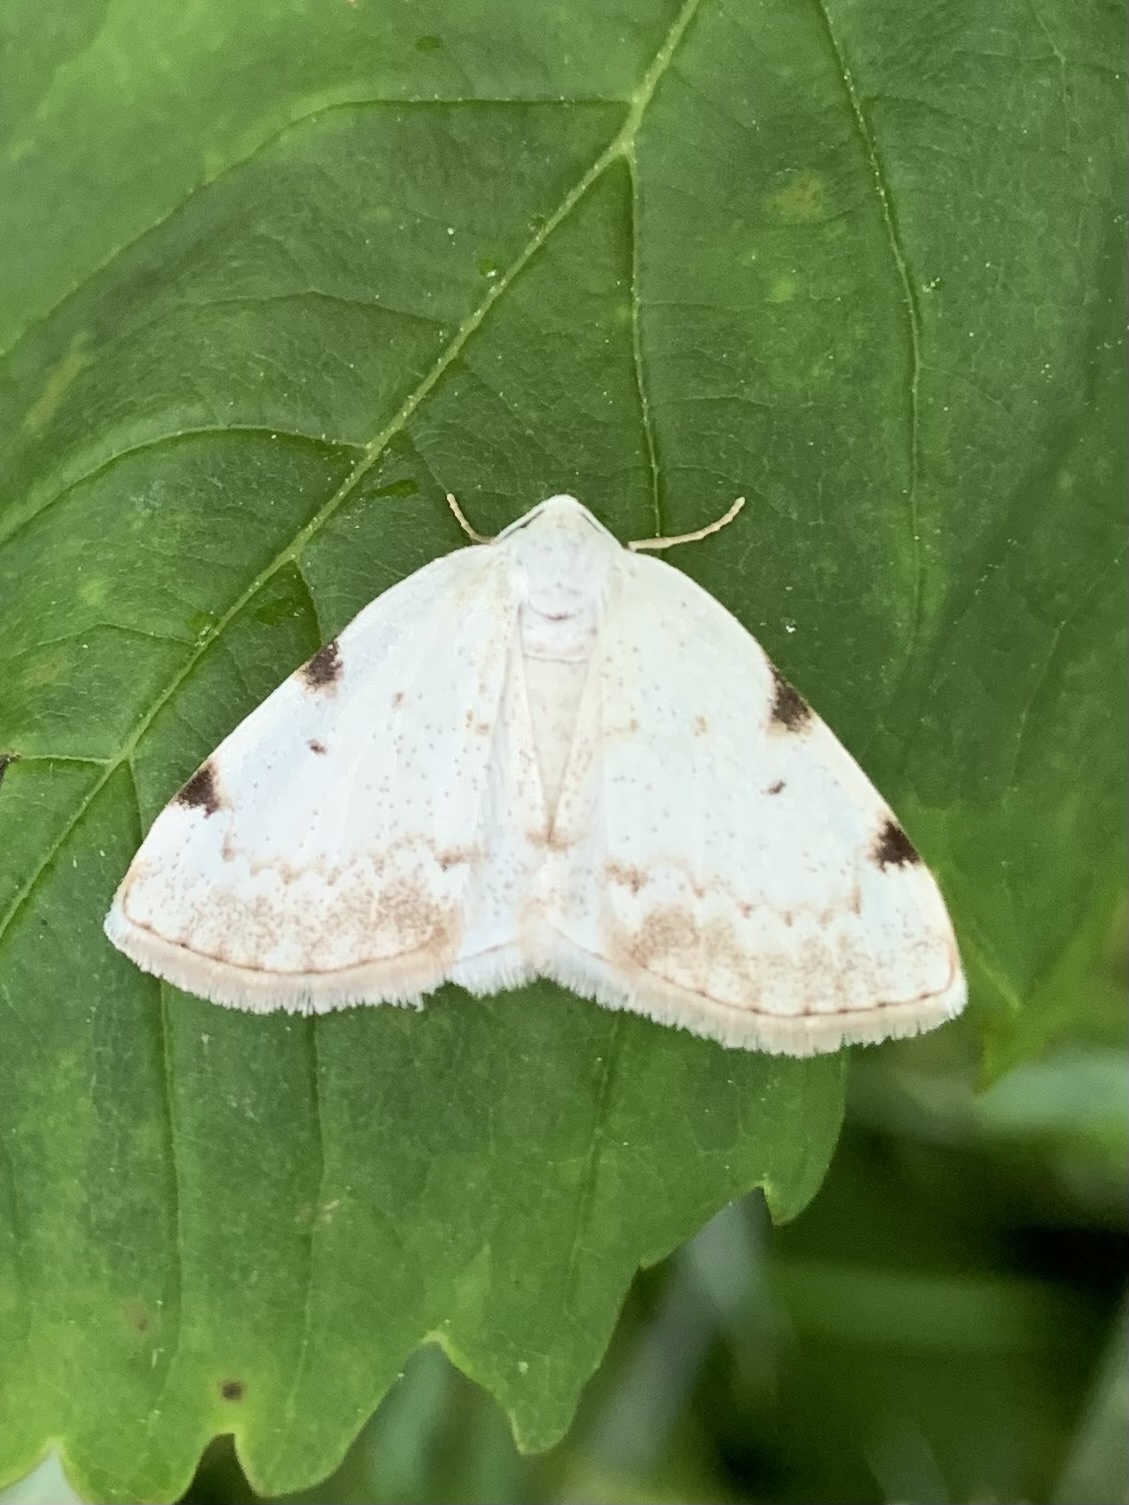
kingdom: Animalia
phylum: Arthropoda
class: Insecta
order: Lepidoptera
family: Geometridae
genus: Lomographa
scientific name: Lomographa bimaculata
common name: White-pinion spotted
